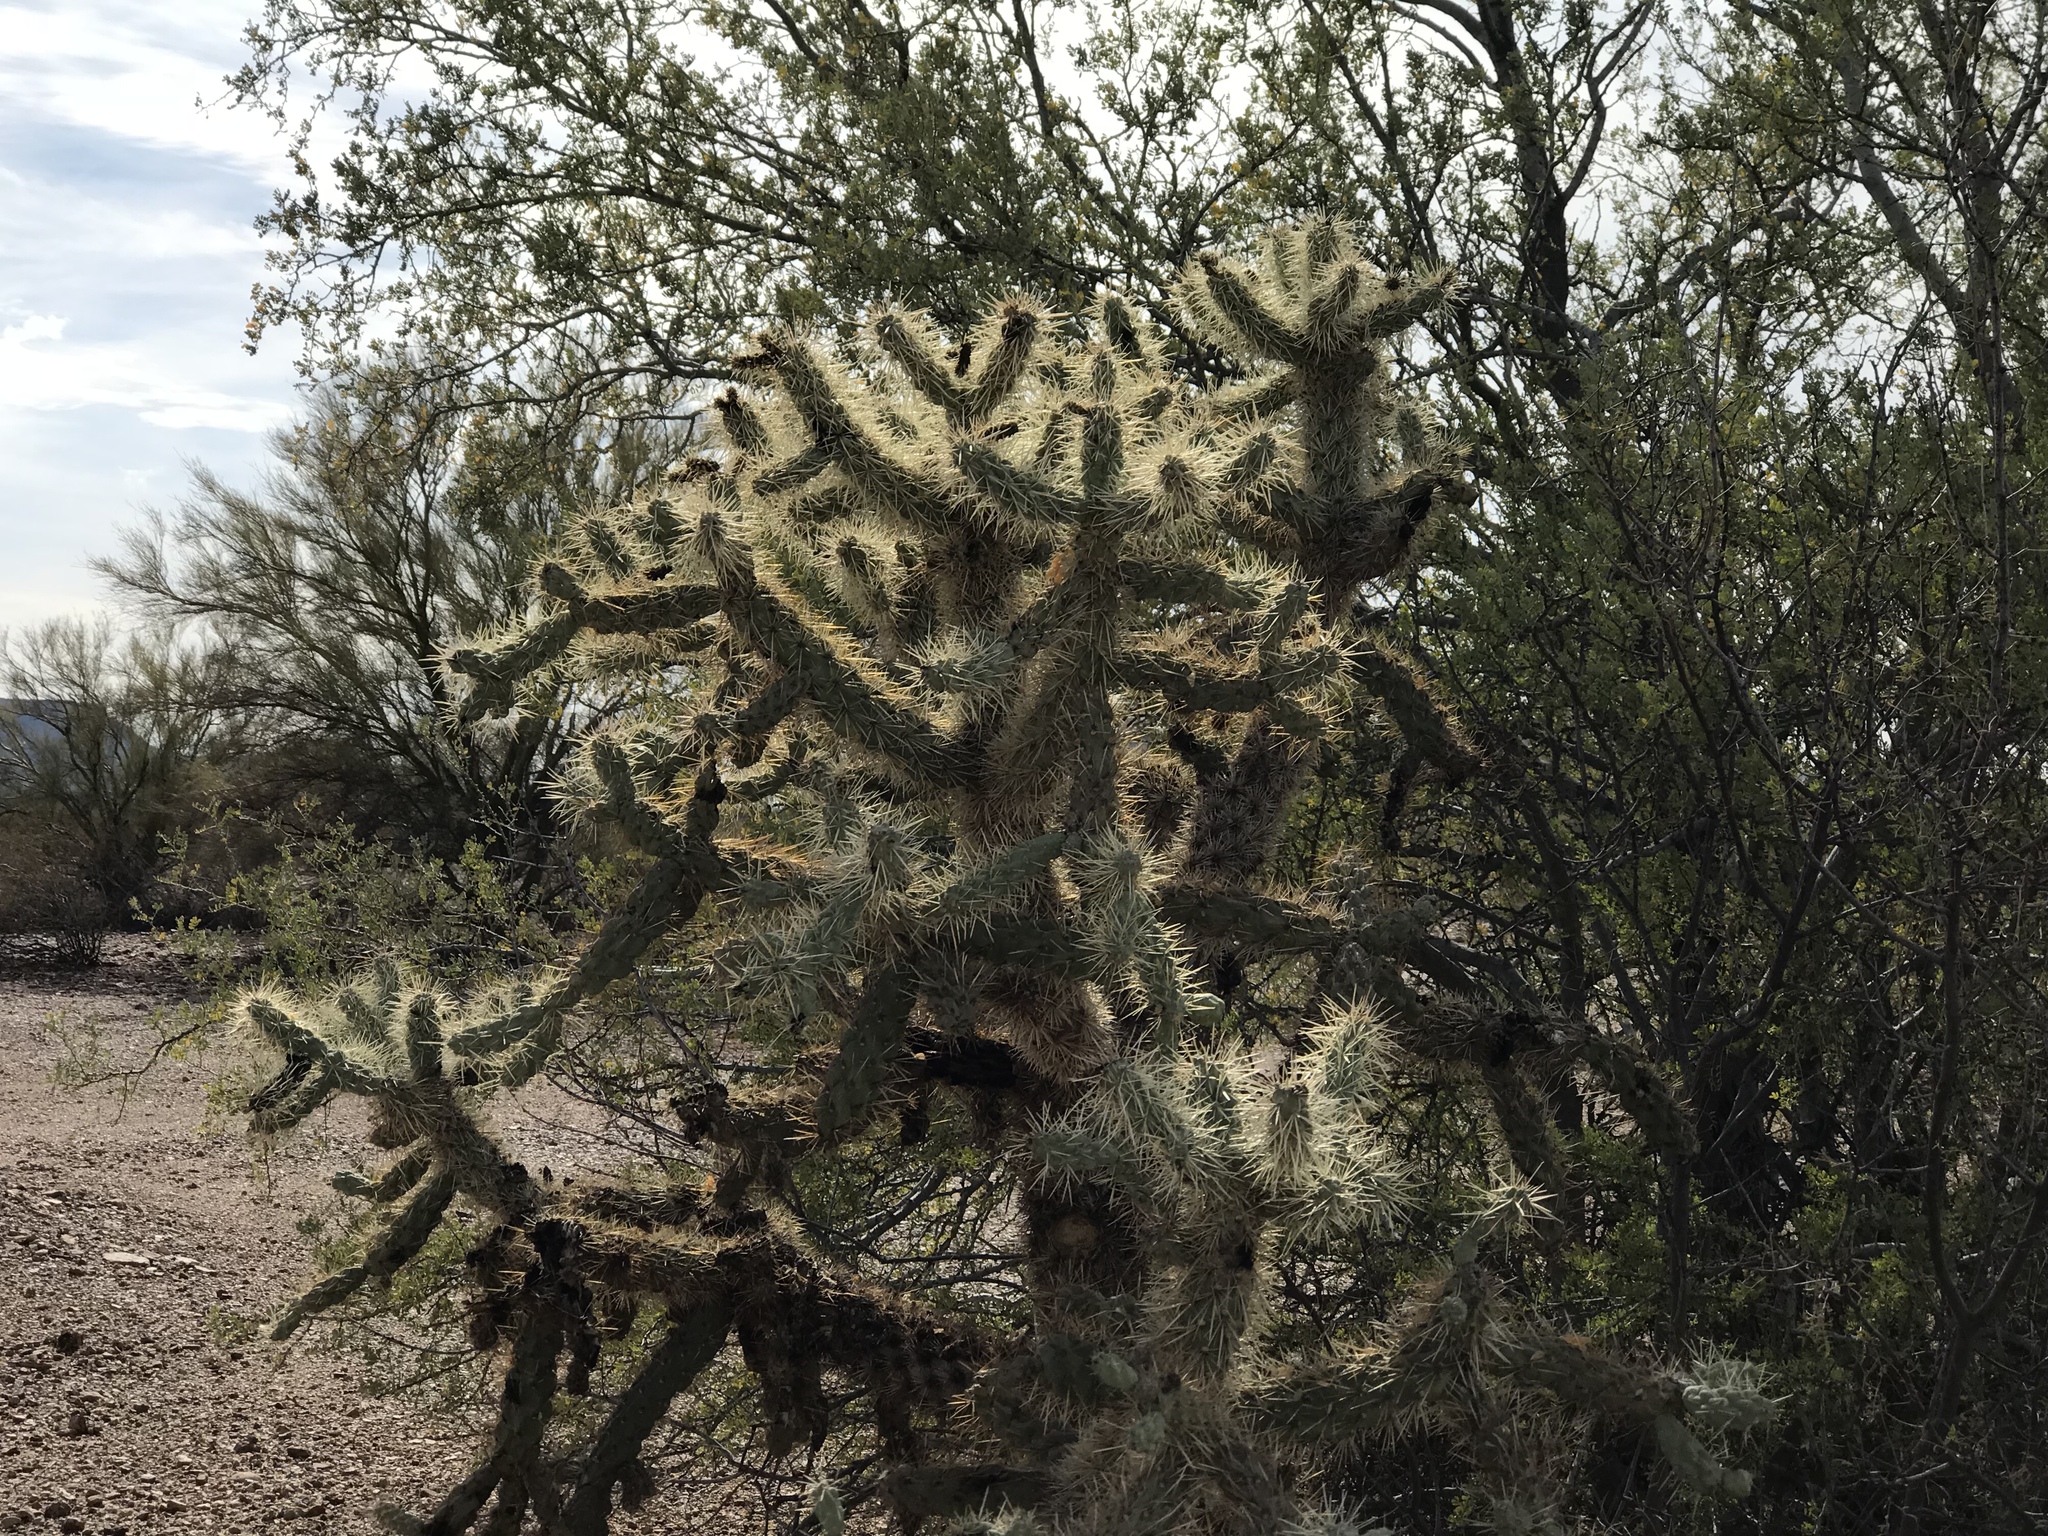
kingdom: Plantae
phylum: Tracheophyta
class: Magnoliopsida
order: Caryophyllales
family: Cactaceae
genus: Cylindropuntia
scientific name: Cylindropuntia fulgida
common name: Jumping cholla
